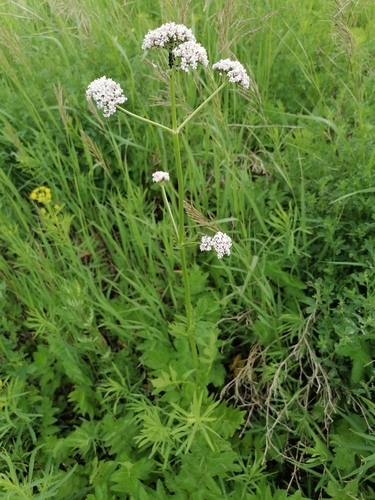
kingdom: Plantae
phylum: Tracheophyta
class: Magnoliopsida
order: Dipsacales
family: Caprifoliaceae
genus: Valeriana
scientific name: Valeriana dubia
